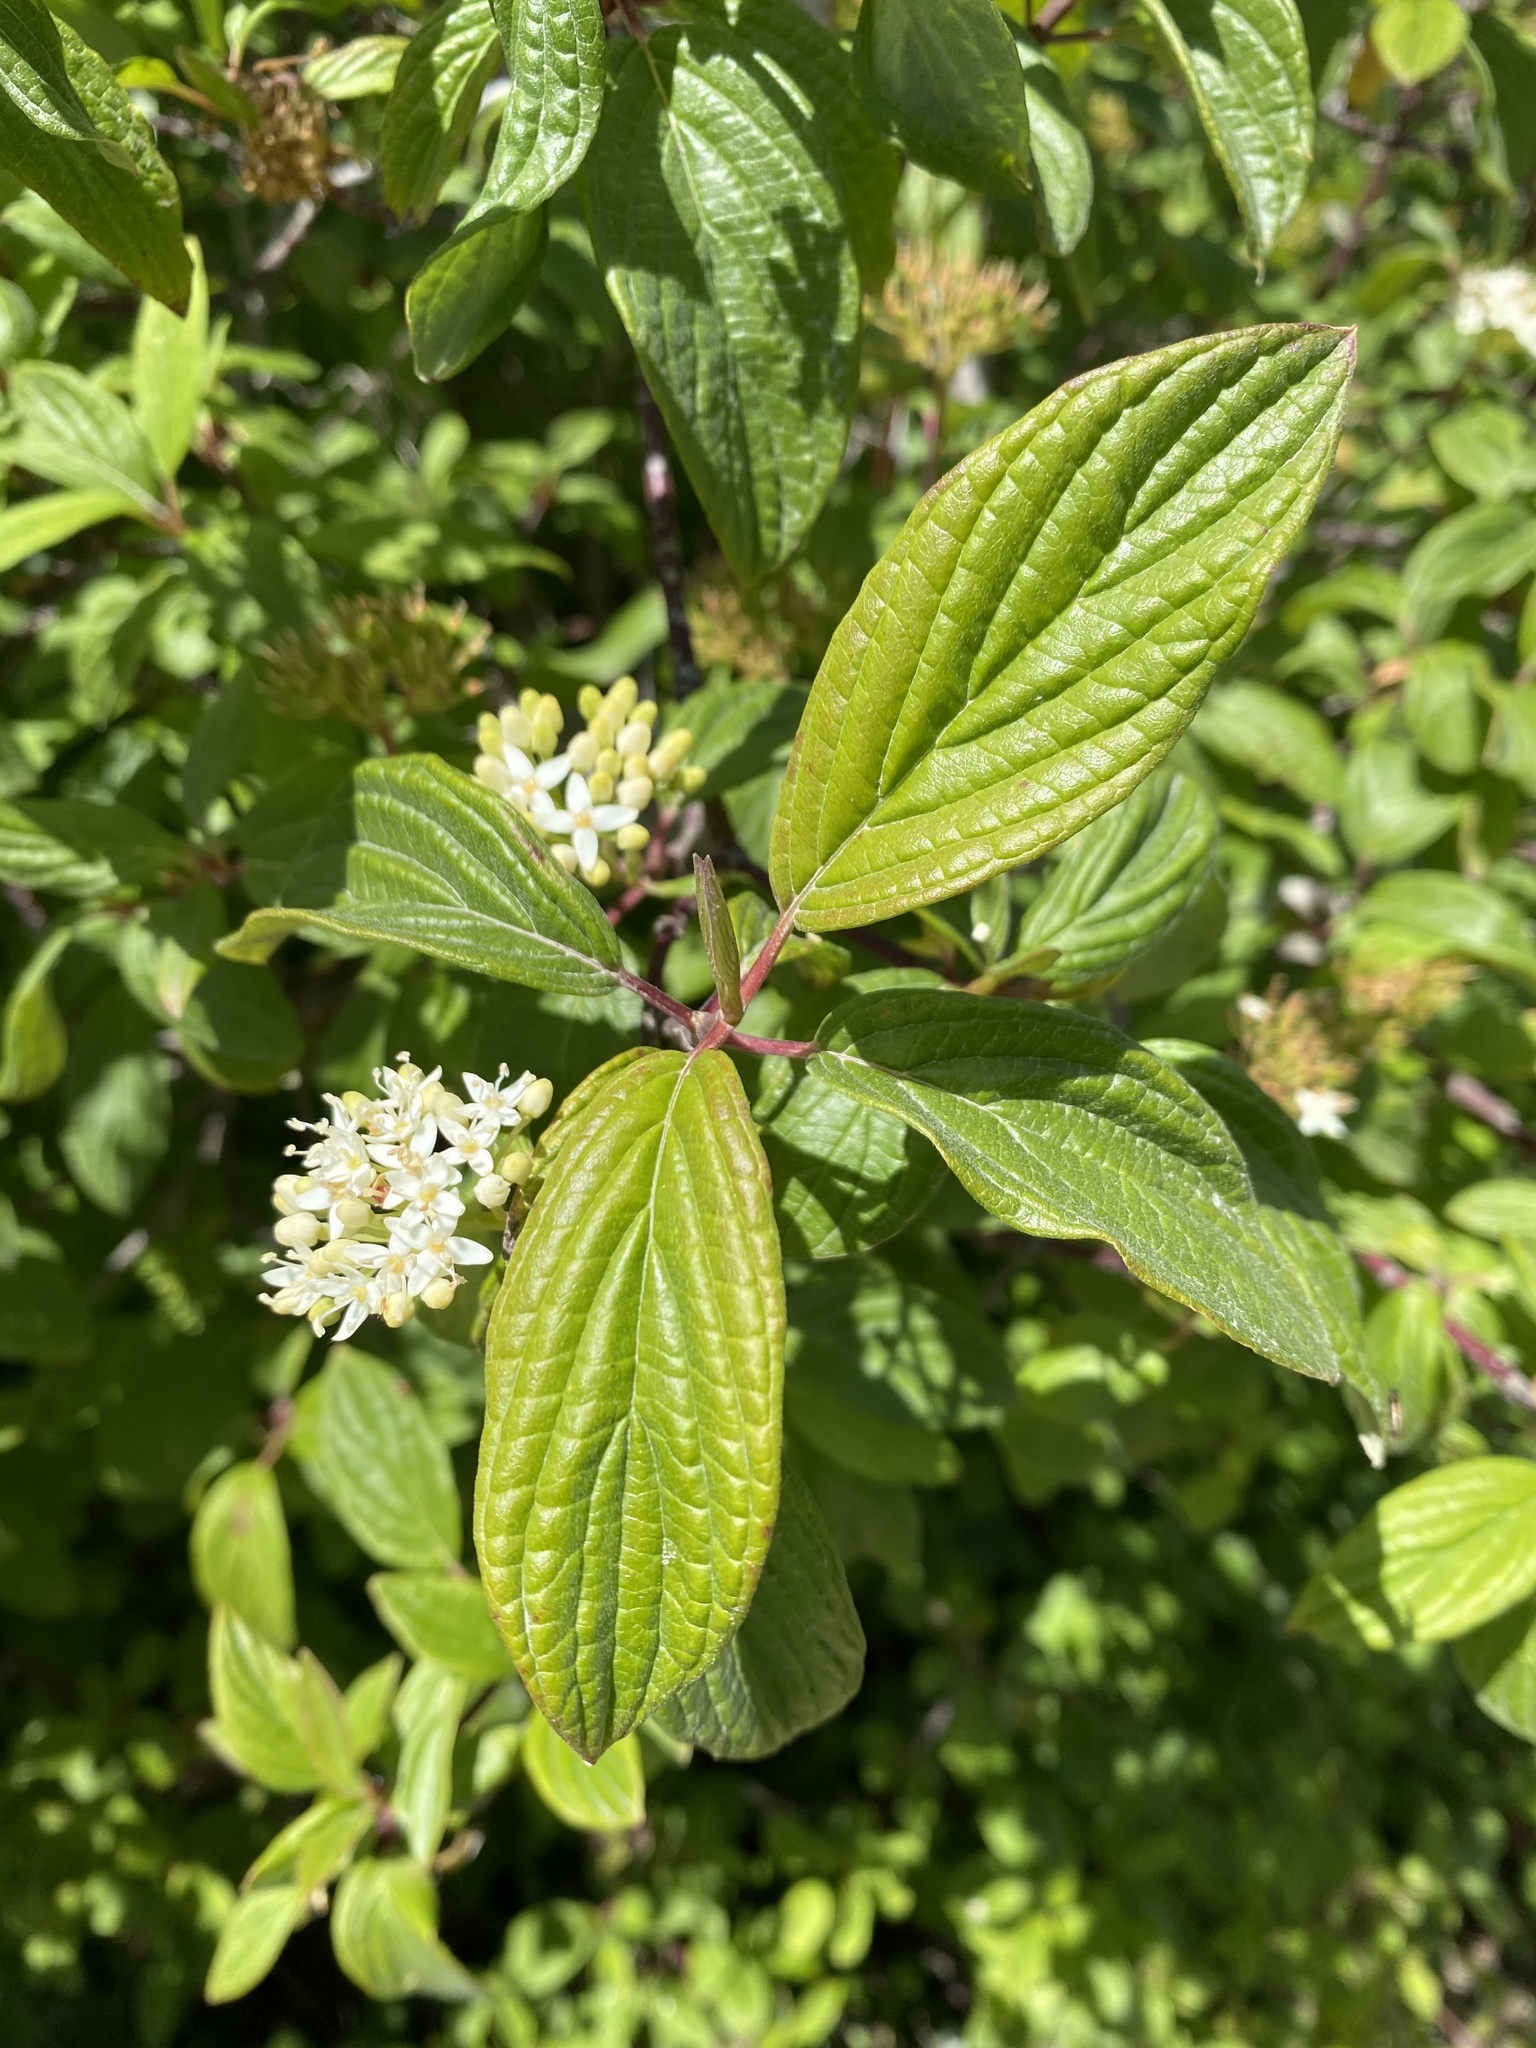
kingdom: Plantae
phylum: Tracheophyta
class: Magnoliopsida
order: Cornales
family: Cornaceae
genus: Cornus
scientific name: Cornus sericea
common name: Red-osier dogwood
